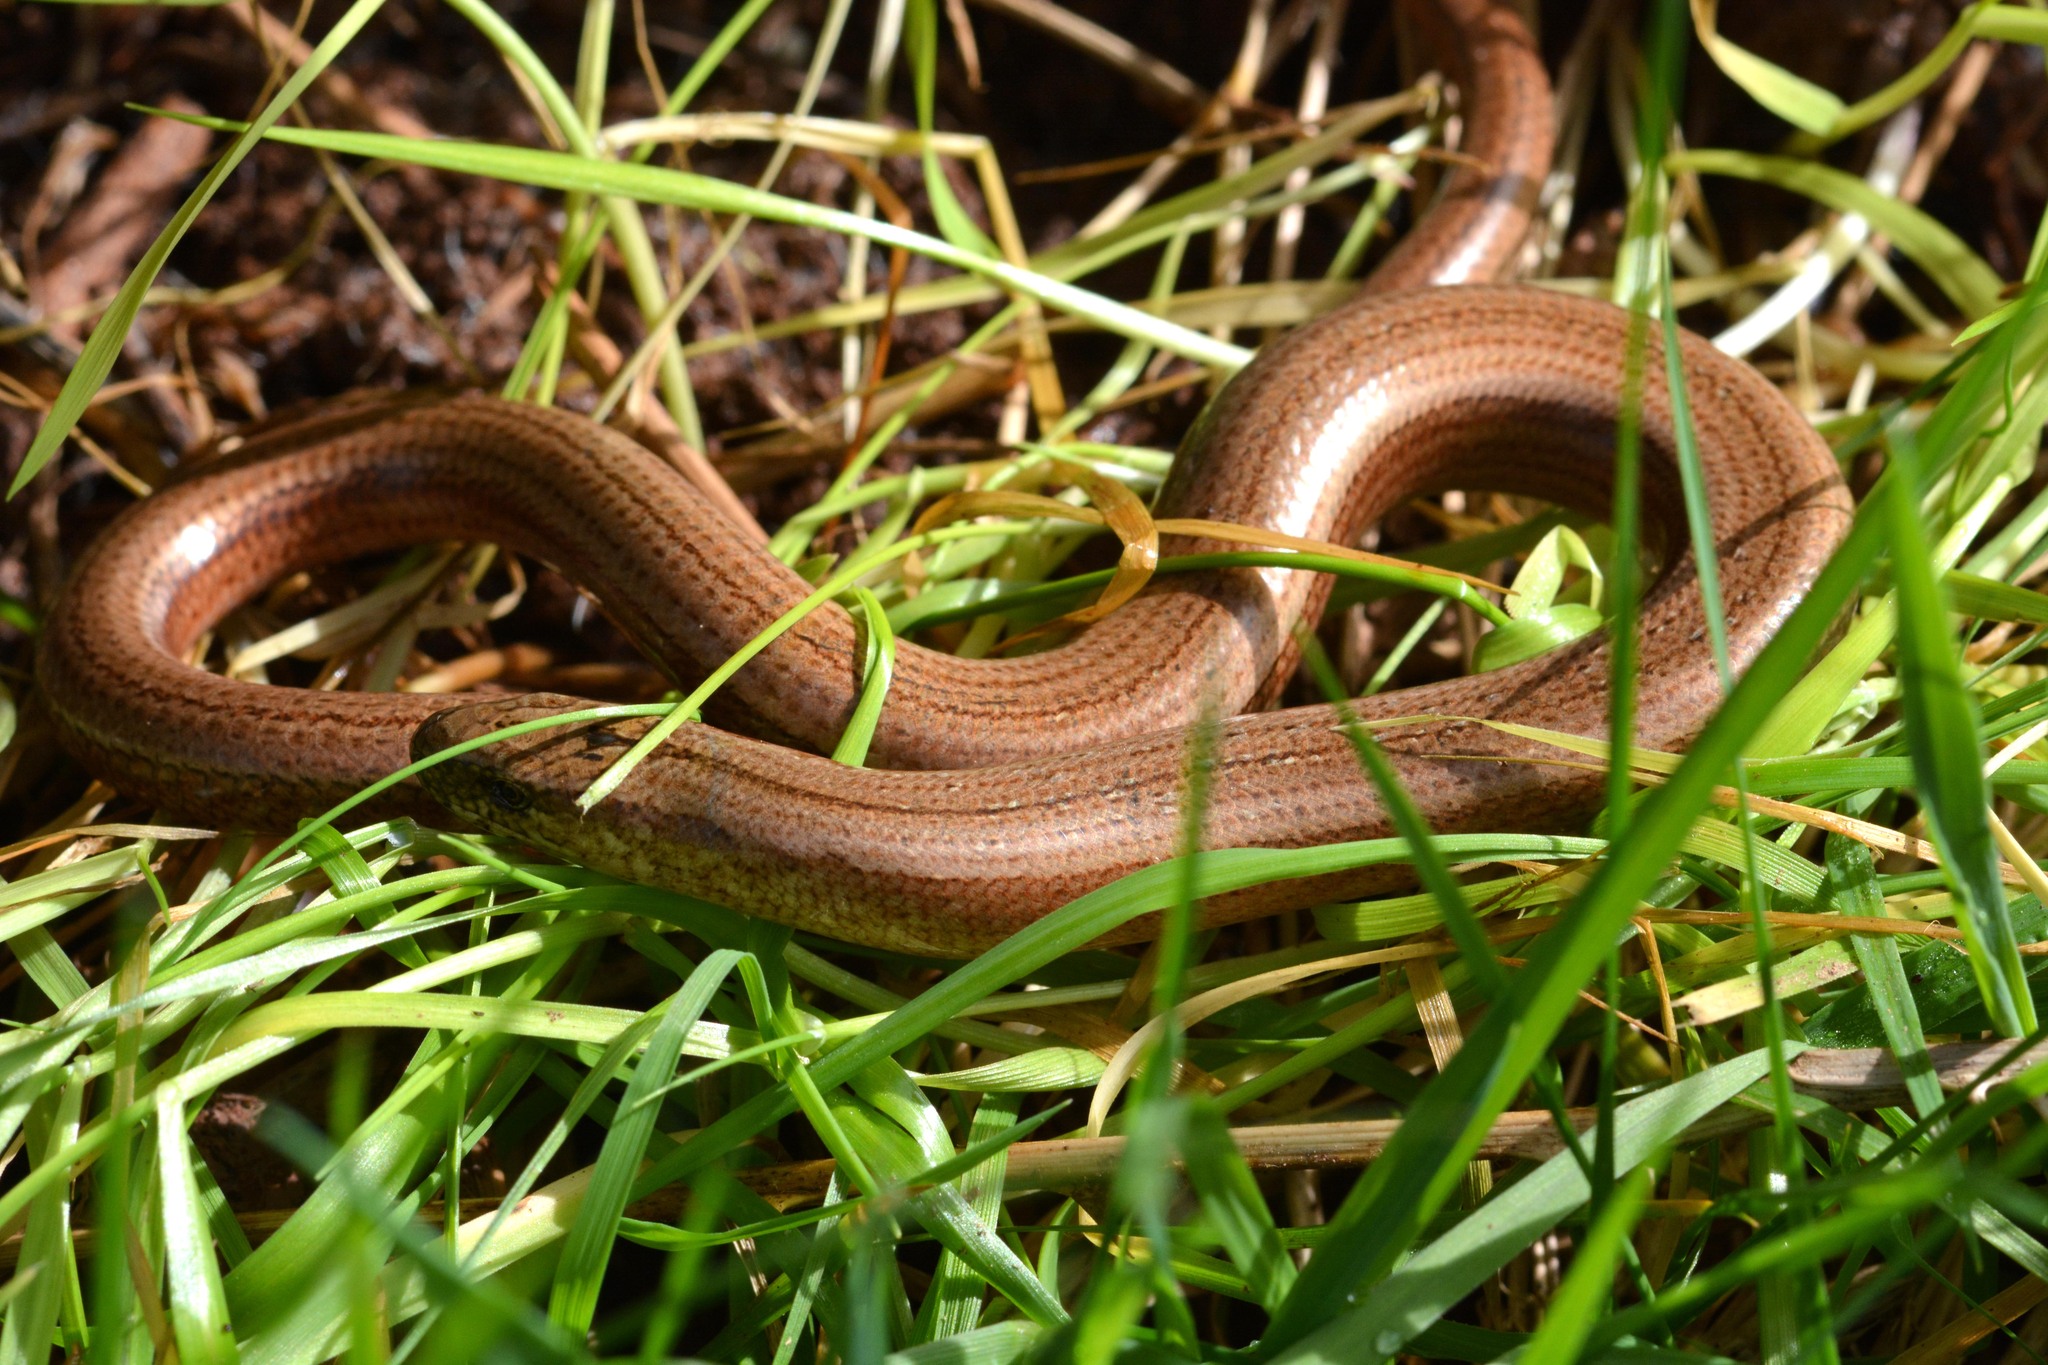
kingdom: Animalia
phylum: Chordata
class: Squamata
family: Anguidae
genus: Anguis
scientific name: Anguis fragilis
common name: Slow worm
